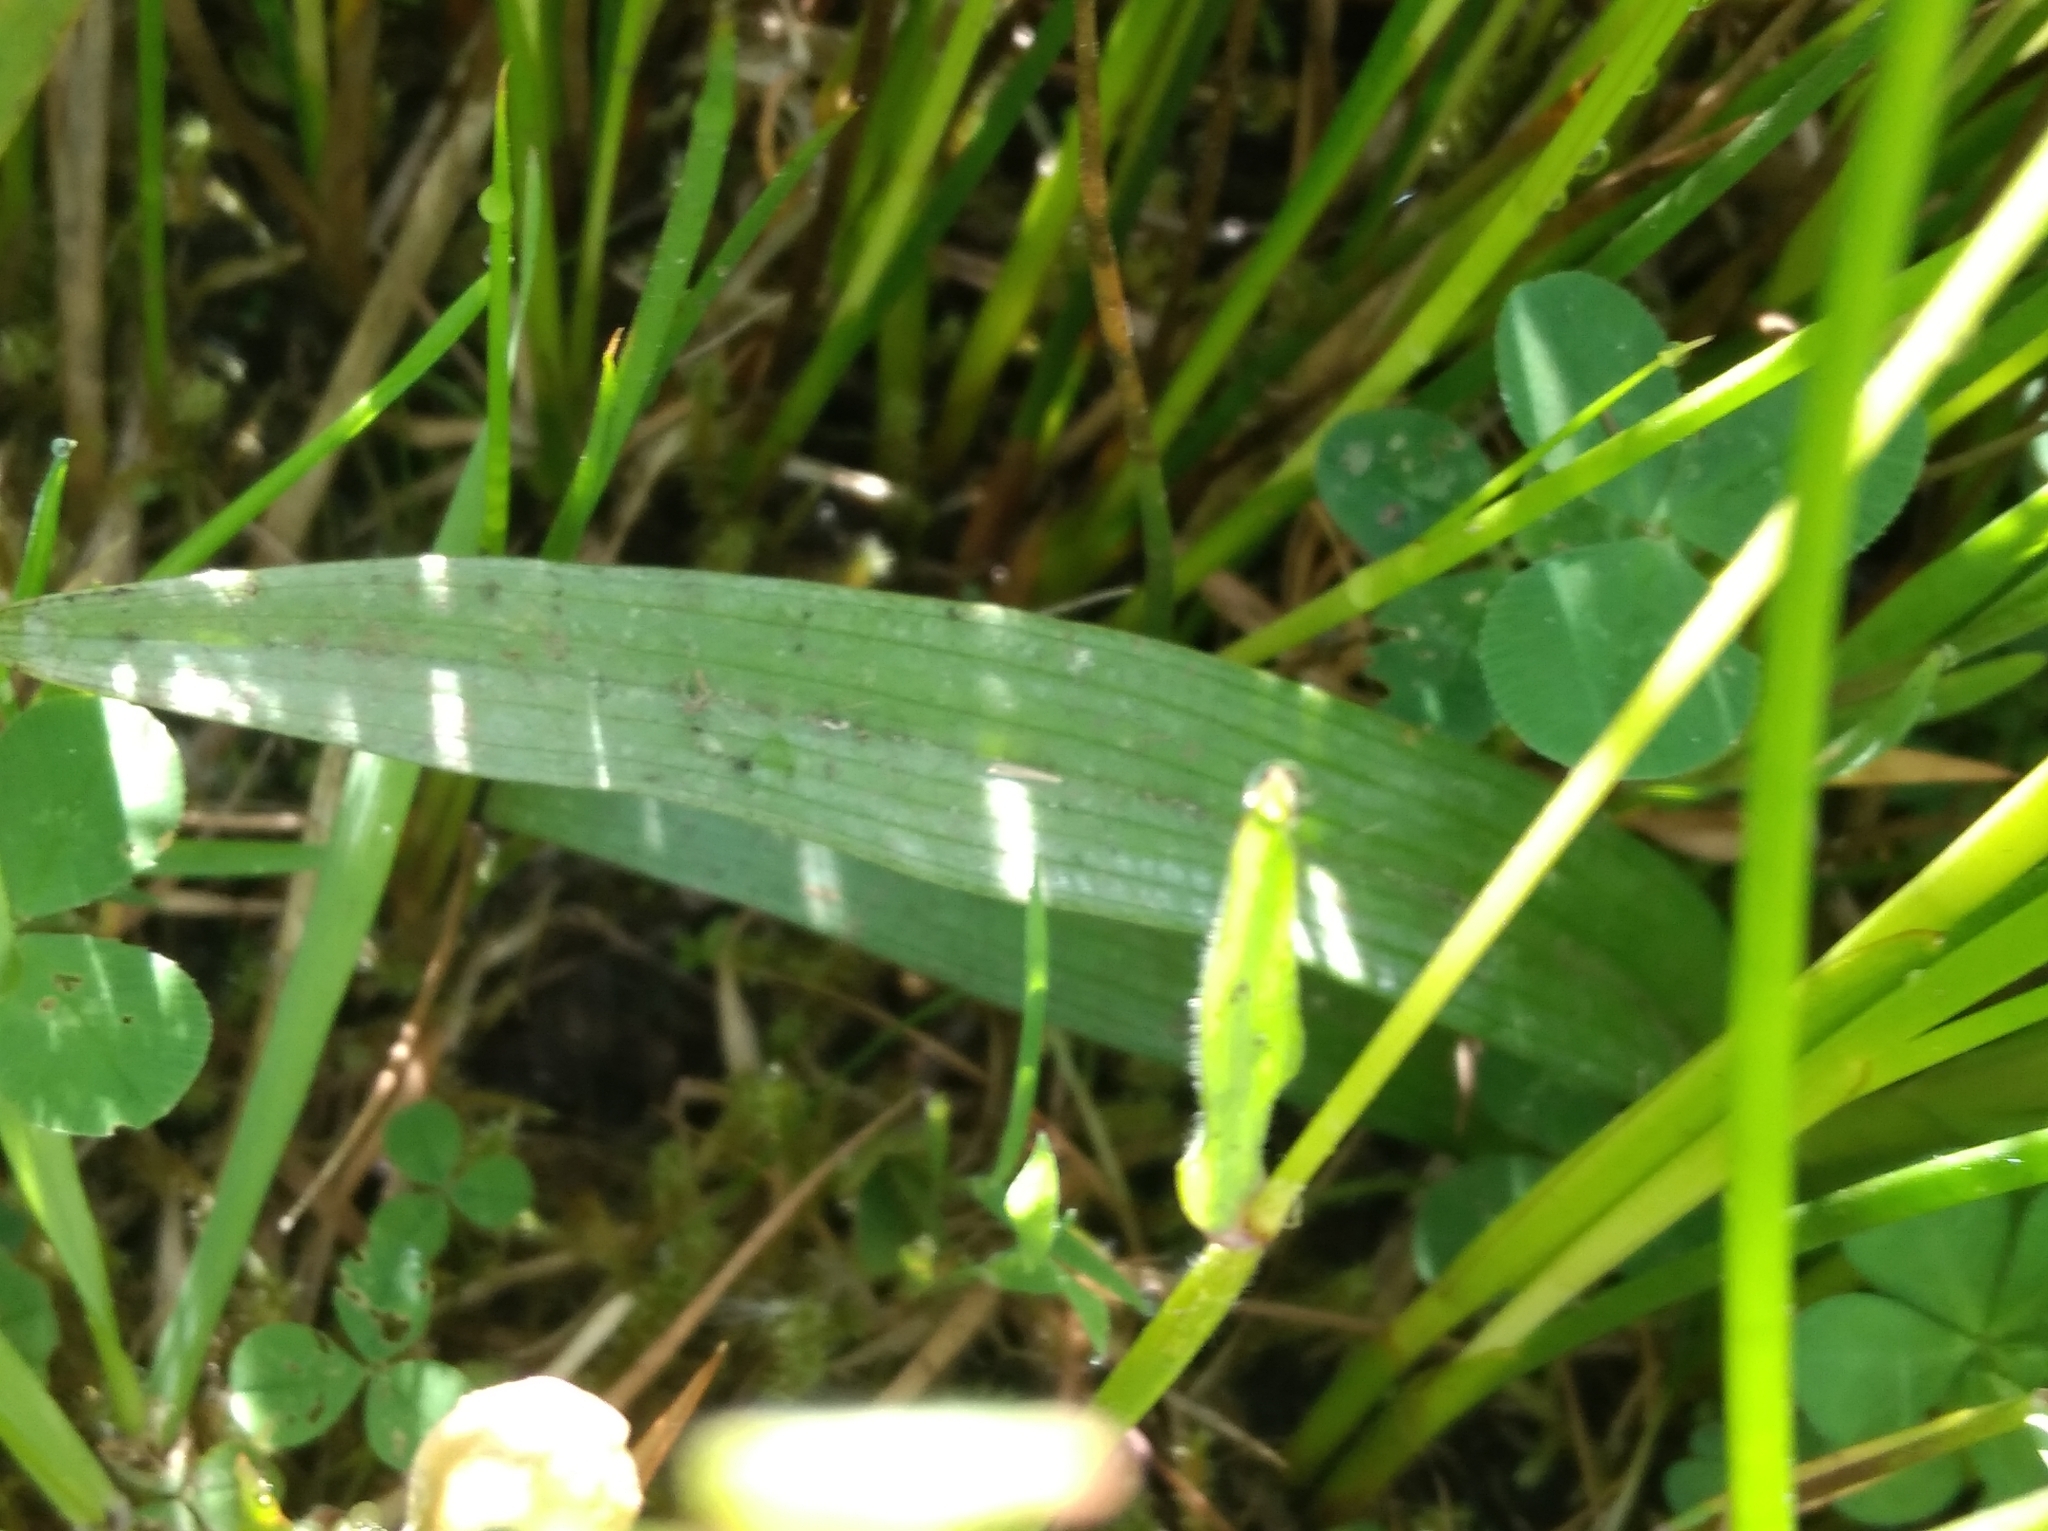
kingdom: Plantae
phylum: Tracheophyta
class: Liliopsida
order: Asparagales
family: Orchidaceae
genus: Dactylorhiza
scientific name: Dactylorhiza maculata
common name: Heath spotted-orchid
